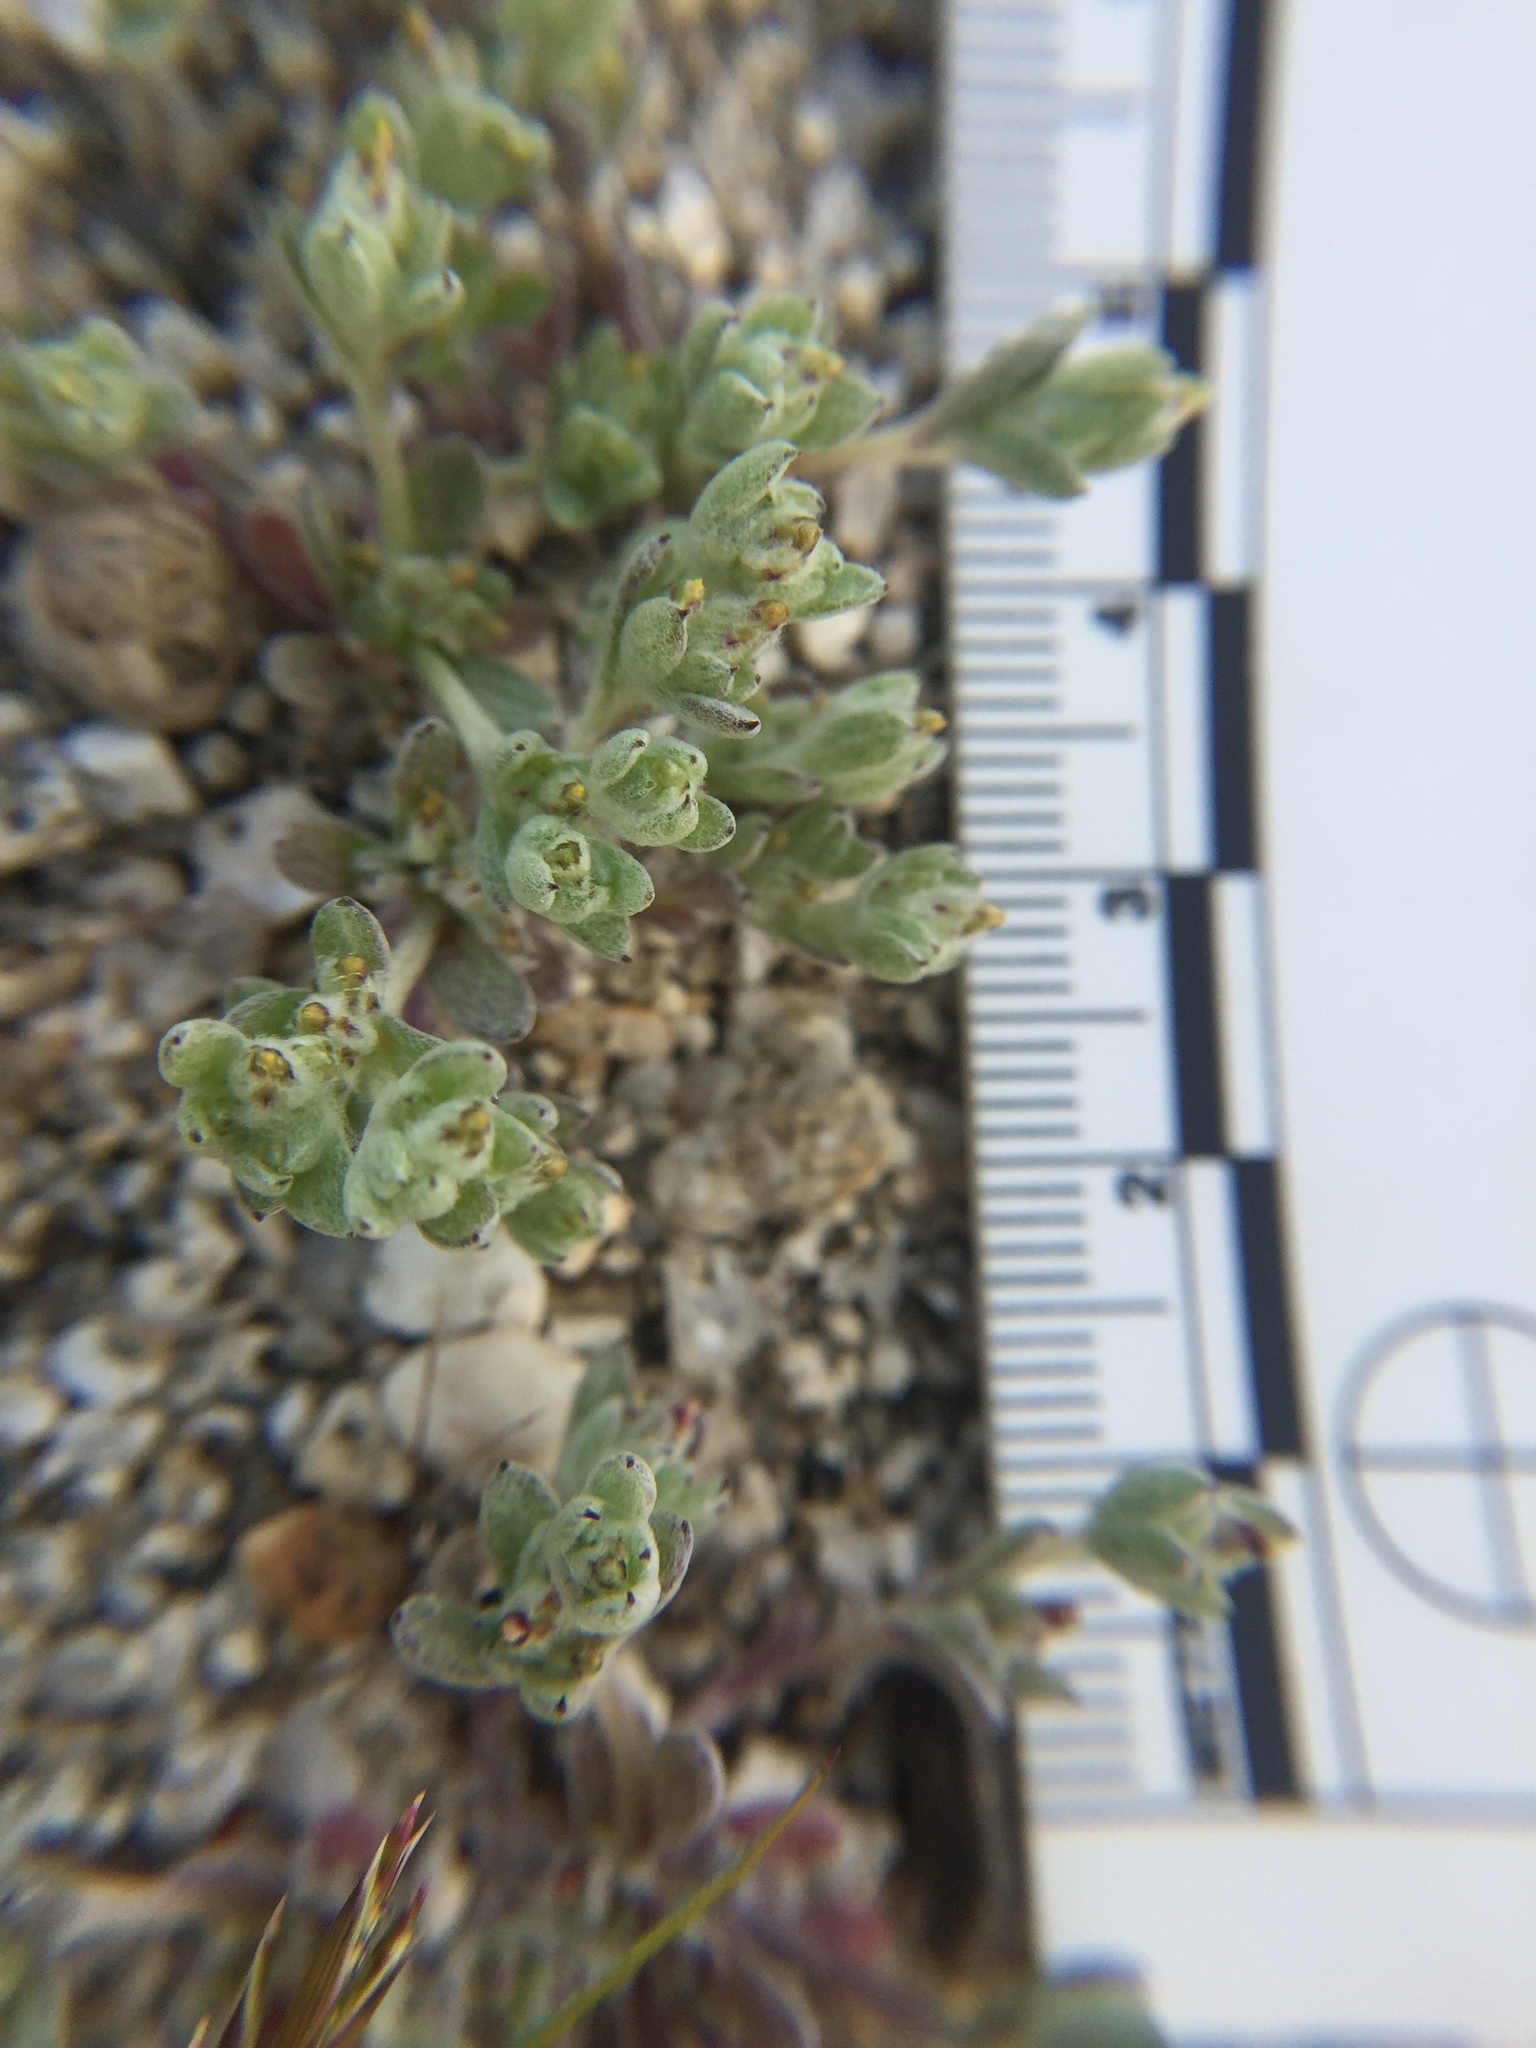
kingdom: Plantae
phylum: Tracheophyta
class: Magnoliopsida
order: Asterales
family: Asteraceae
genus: Logfia
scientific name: Logfia depressa
